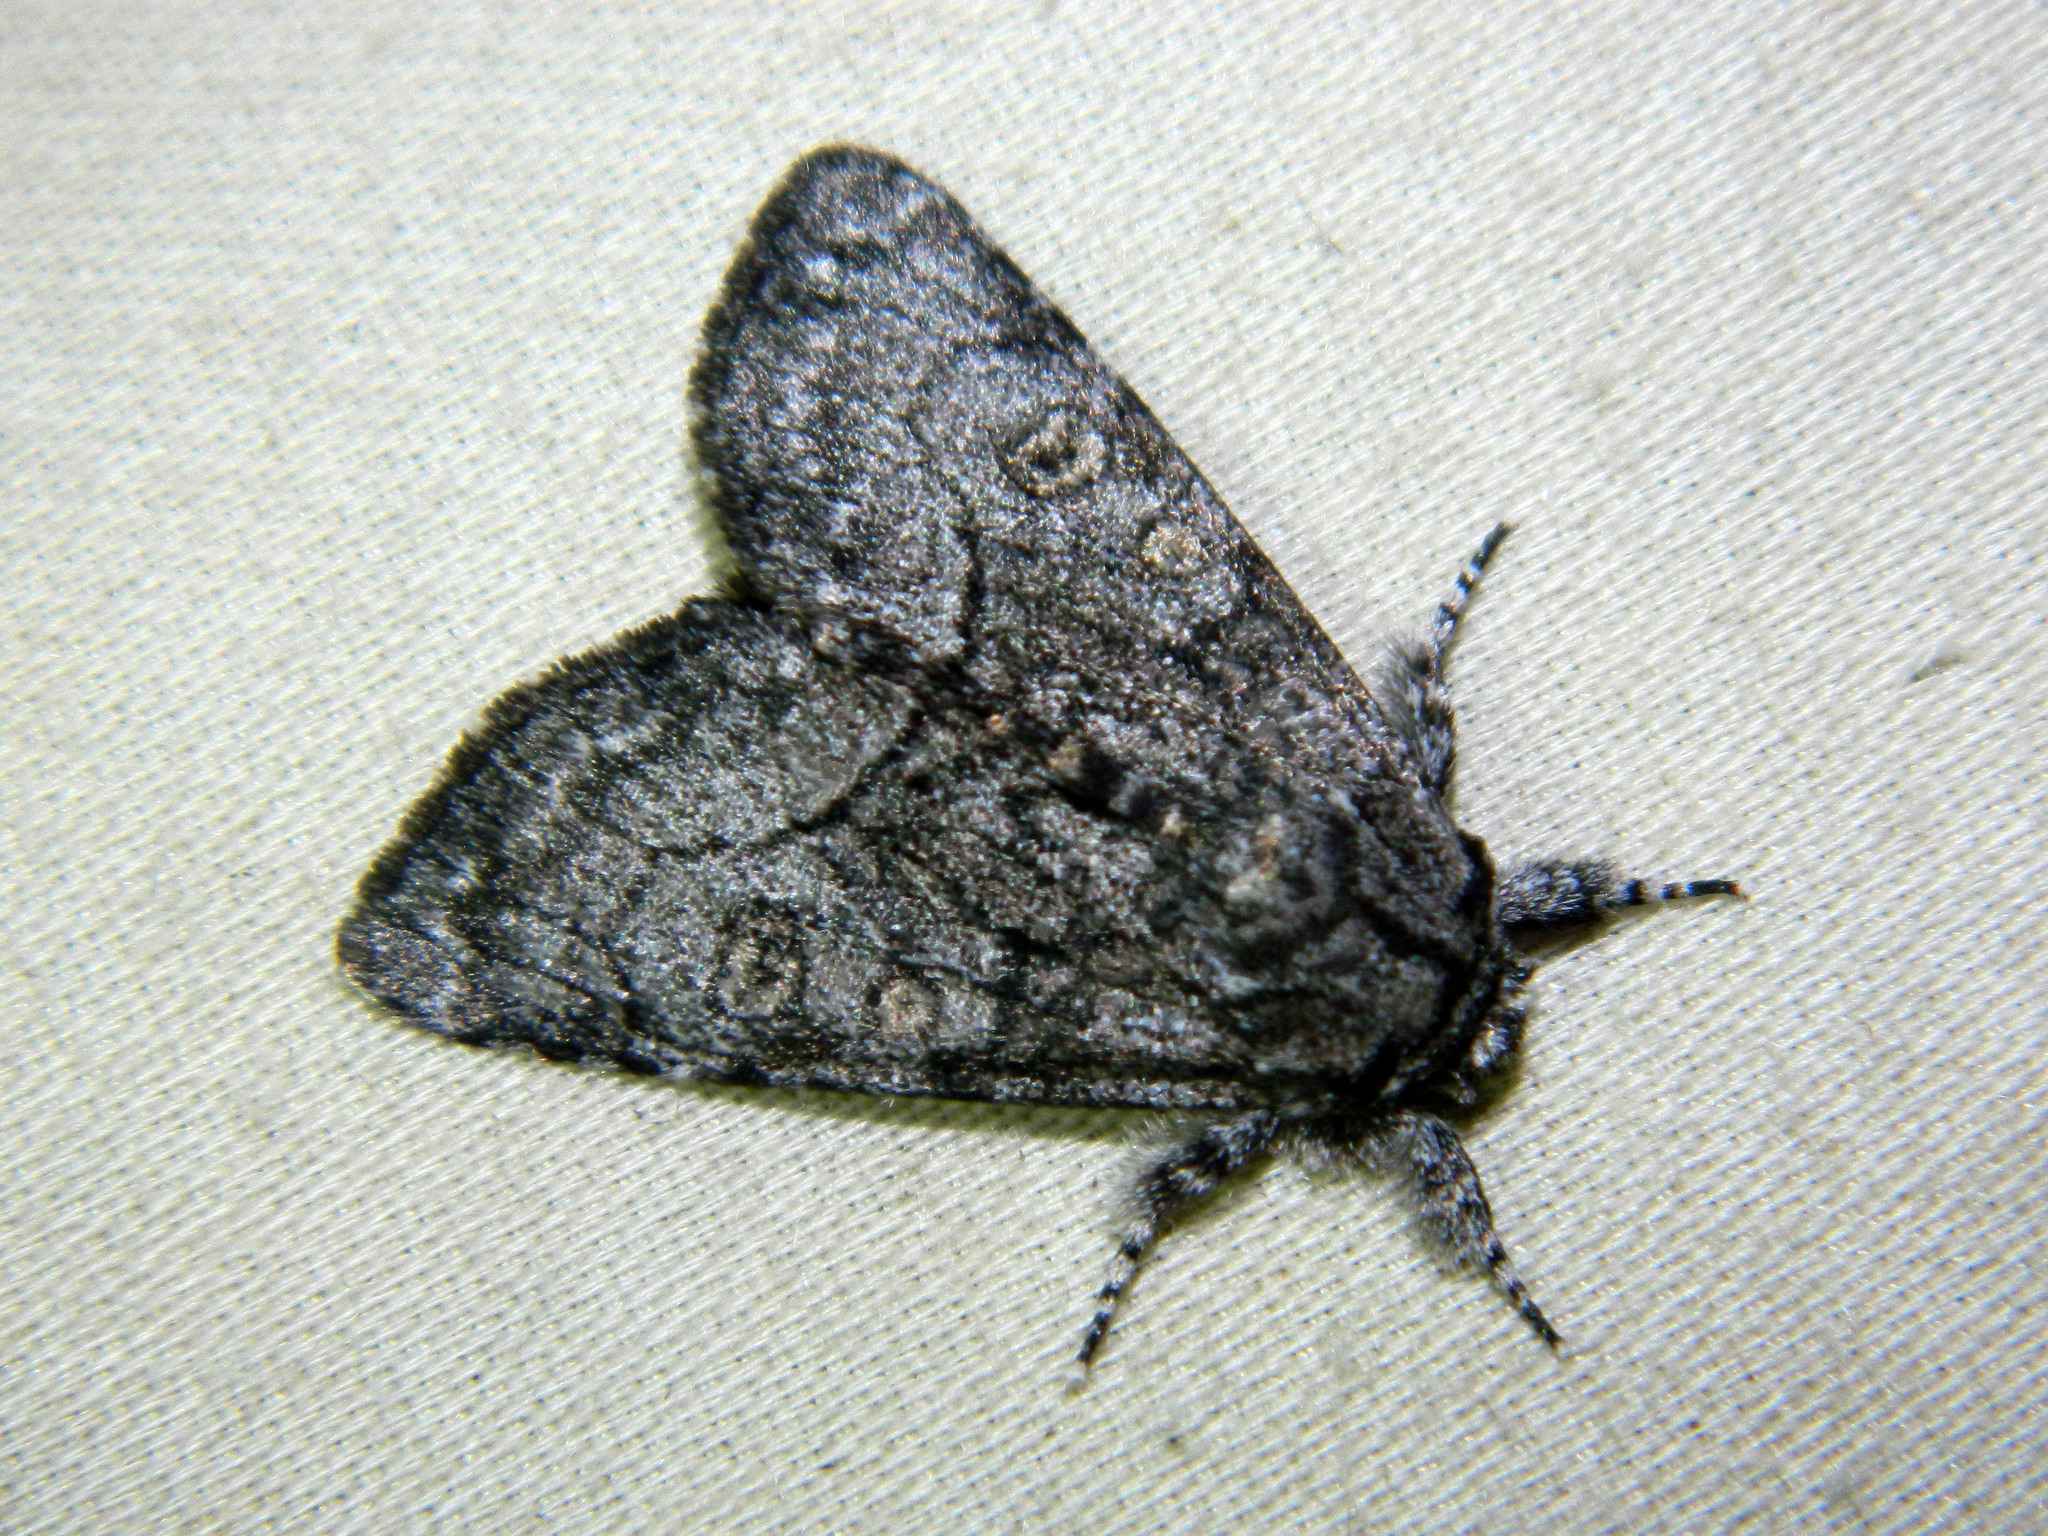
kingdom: Animalia
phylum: Arthropoda
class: Insecta
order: Lepidoptera
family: Noctuidae
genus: Raphia
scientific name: Raphia frater
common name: Brother
